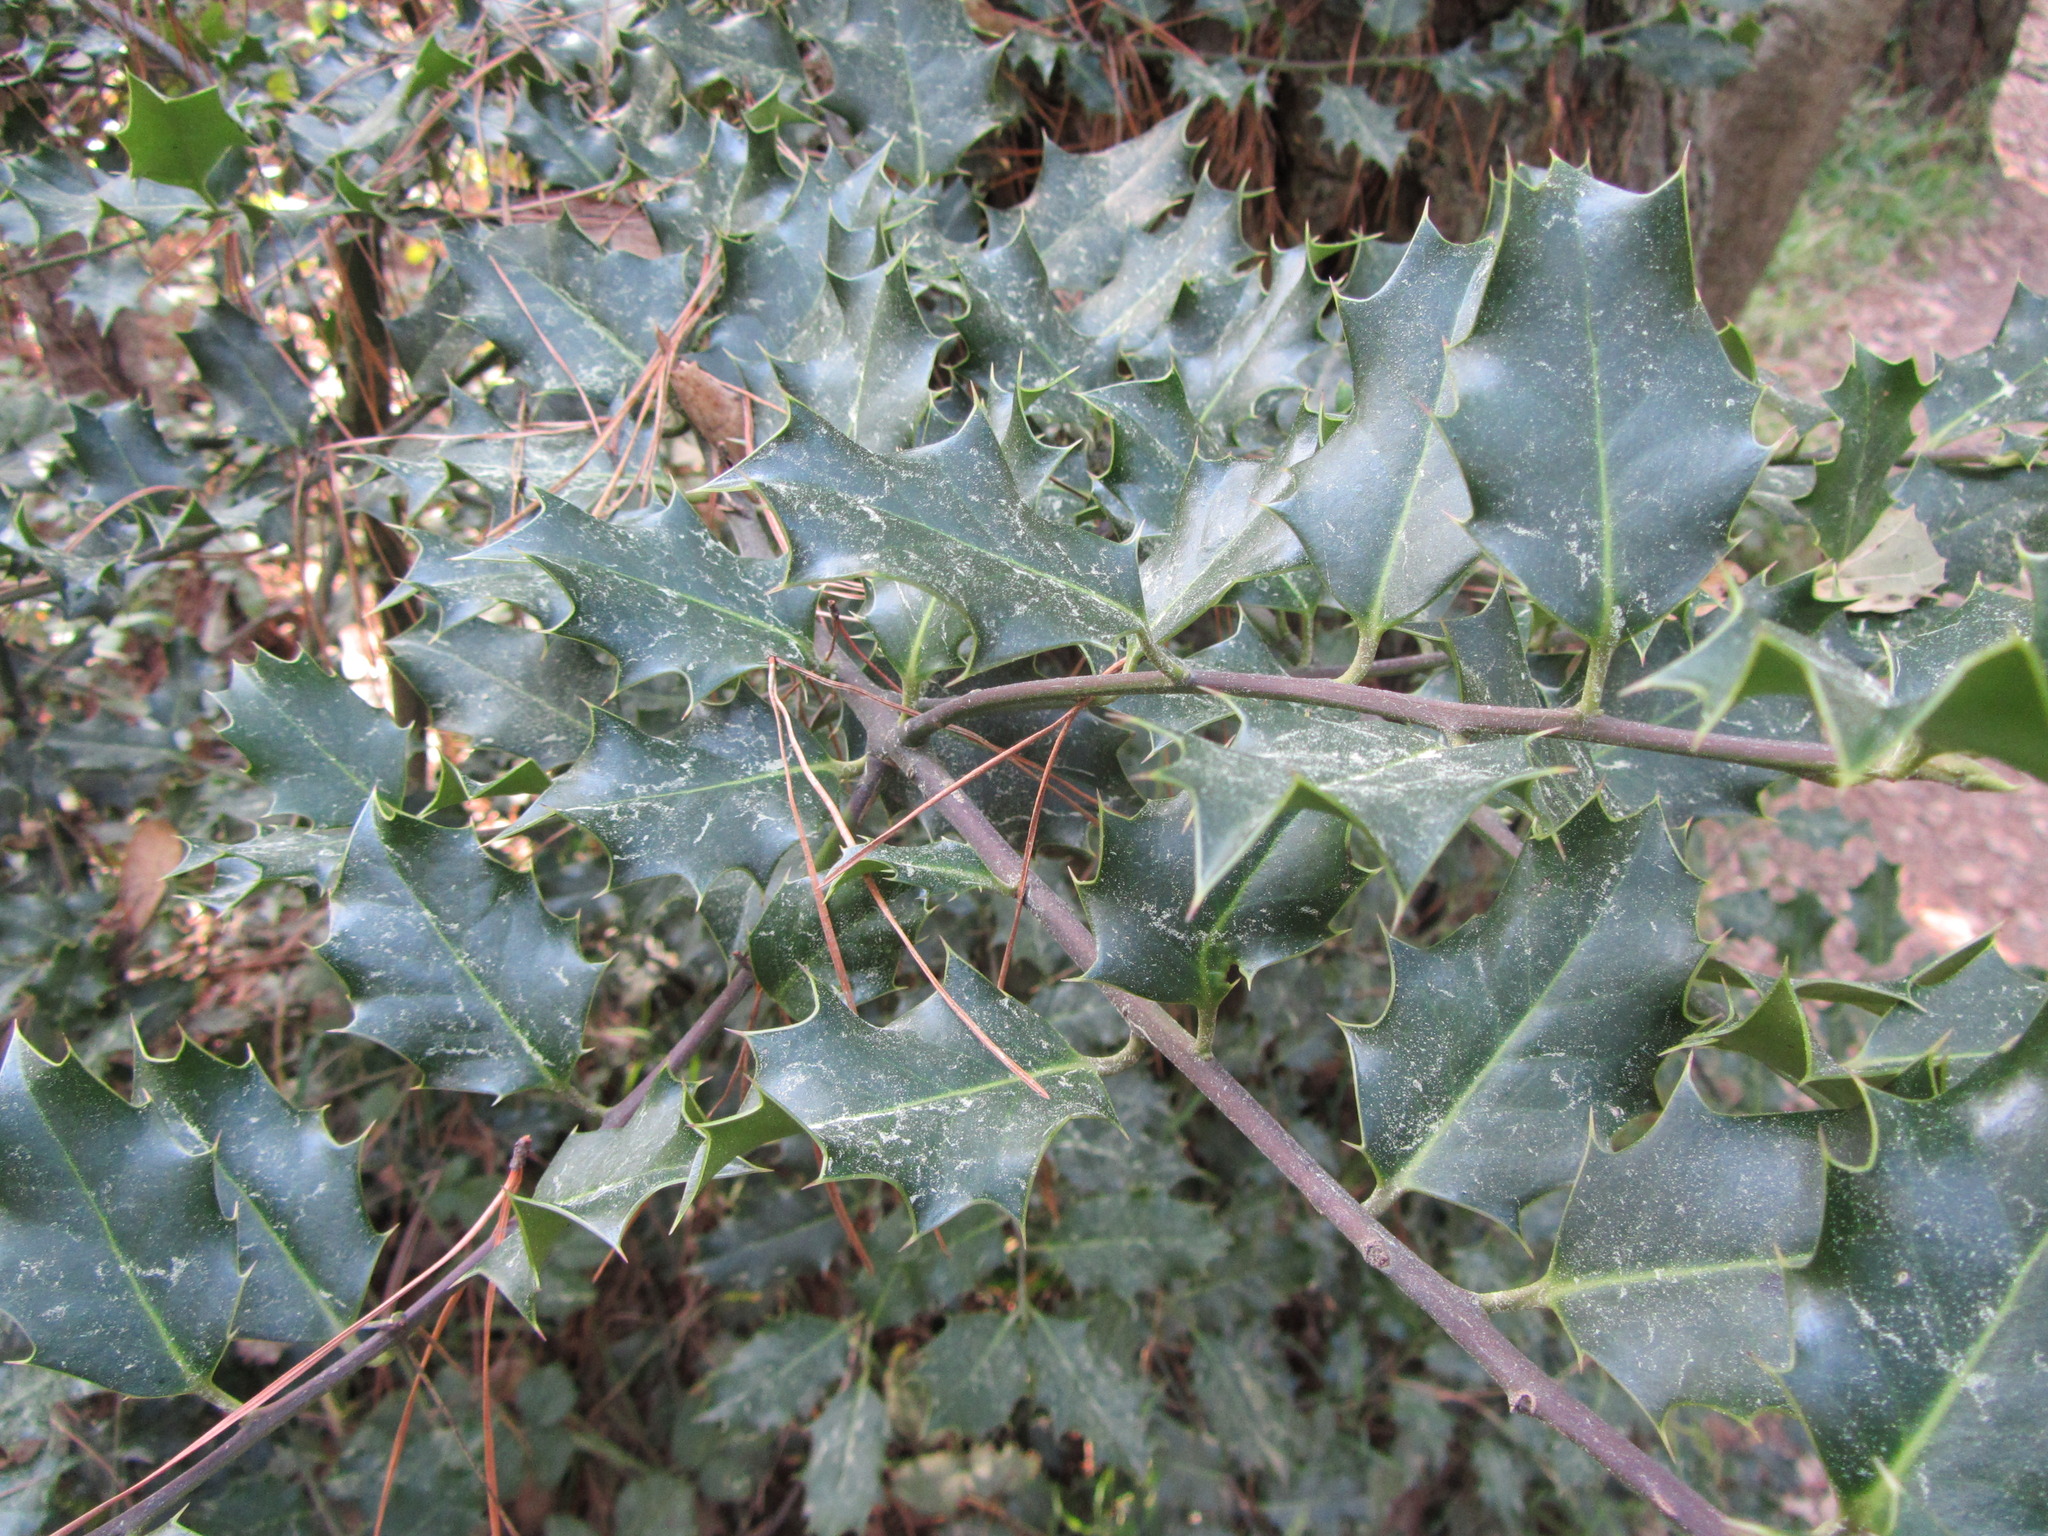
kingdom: Plantae
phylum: Tracheophyta
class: Magnoliopsida
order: Aquifoliales
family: Aquifoliaceae
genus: Ilex
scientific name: Ilex aquifolium
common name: English holly
